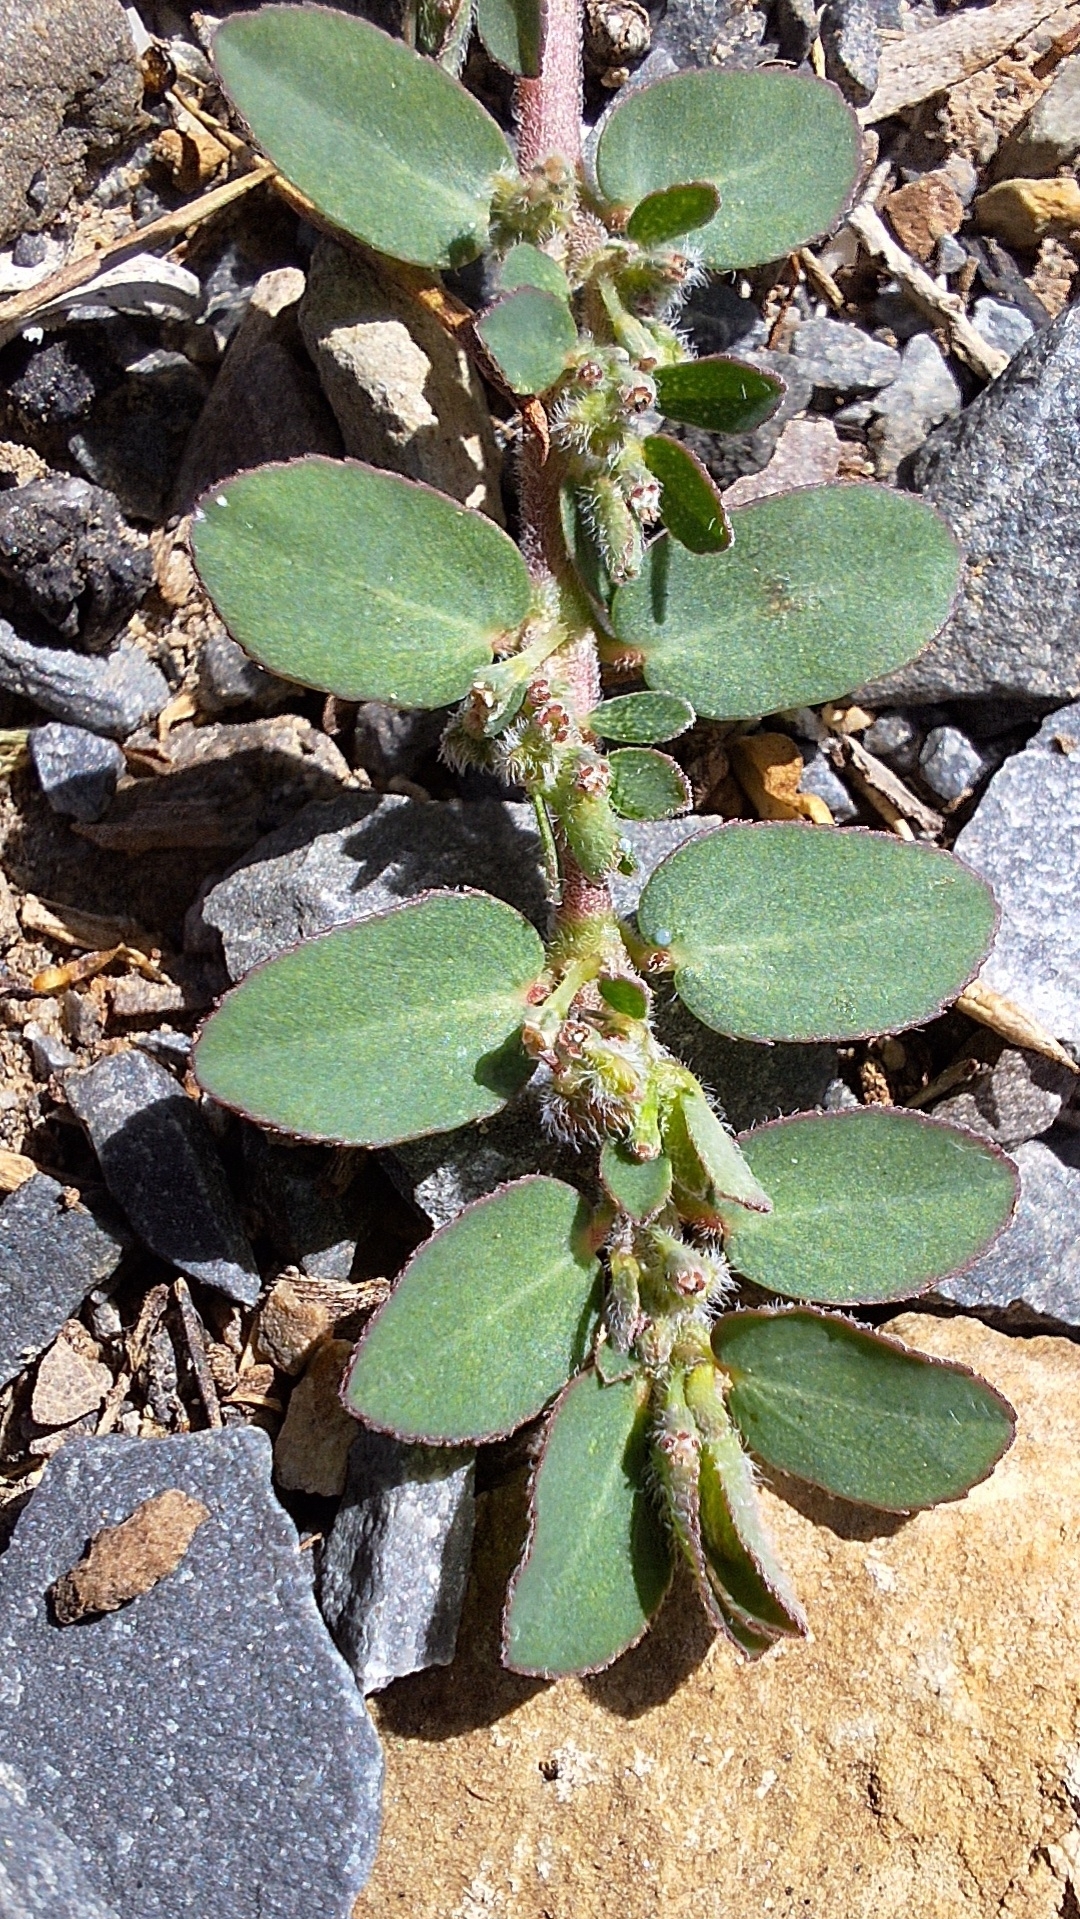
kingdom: Plantae
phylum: Tracheophyta
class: Magnoliopsida
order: Malpighiales
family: Euphorbiaceae
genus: Euphorbia
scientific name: Euphorbia prostrata
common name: Prostrate sandmat
